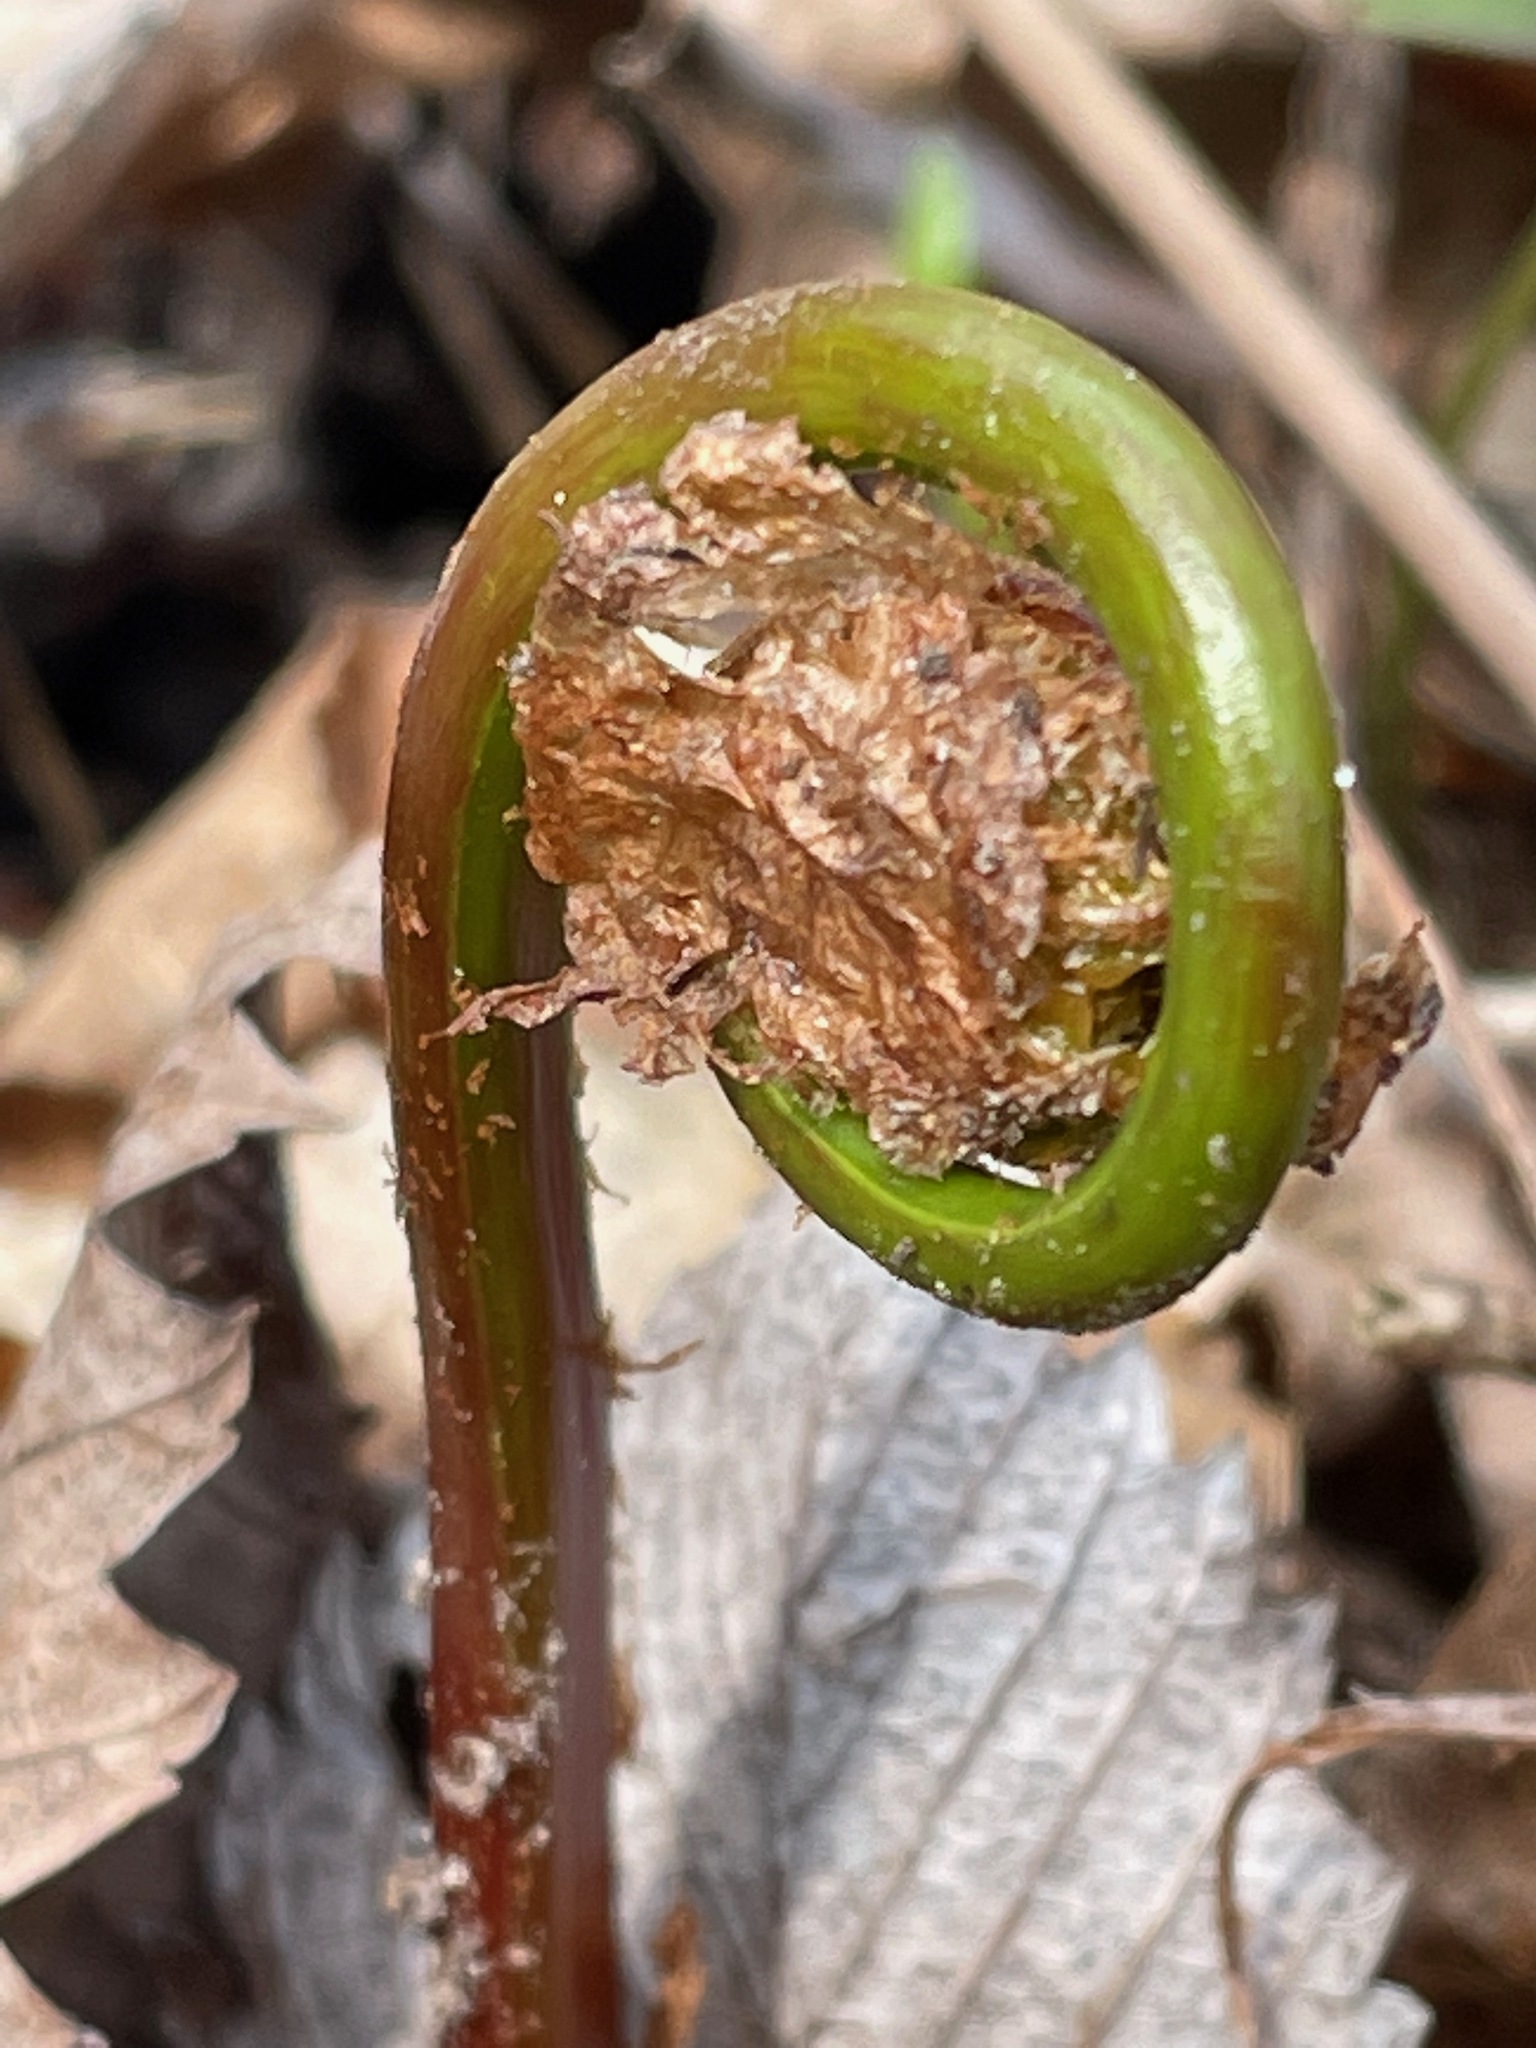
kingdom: Plantae
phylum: Tracheophyta
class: Polypodiopsida
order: Polypodiales
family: Onocleaceae
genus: Matteuccia
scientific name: Matteuccia struthiopteris
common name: Ostrich fern
